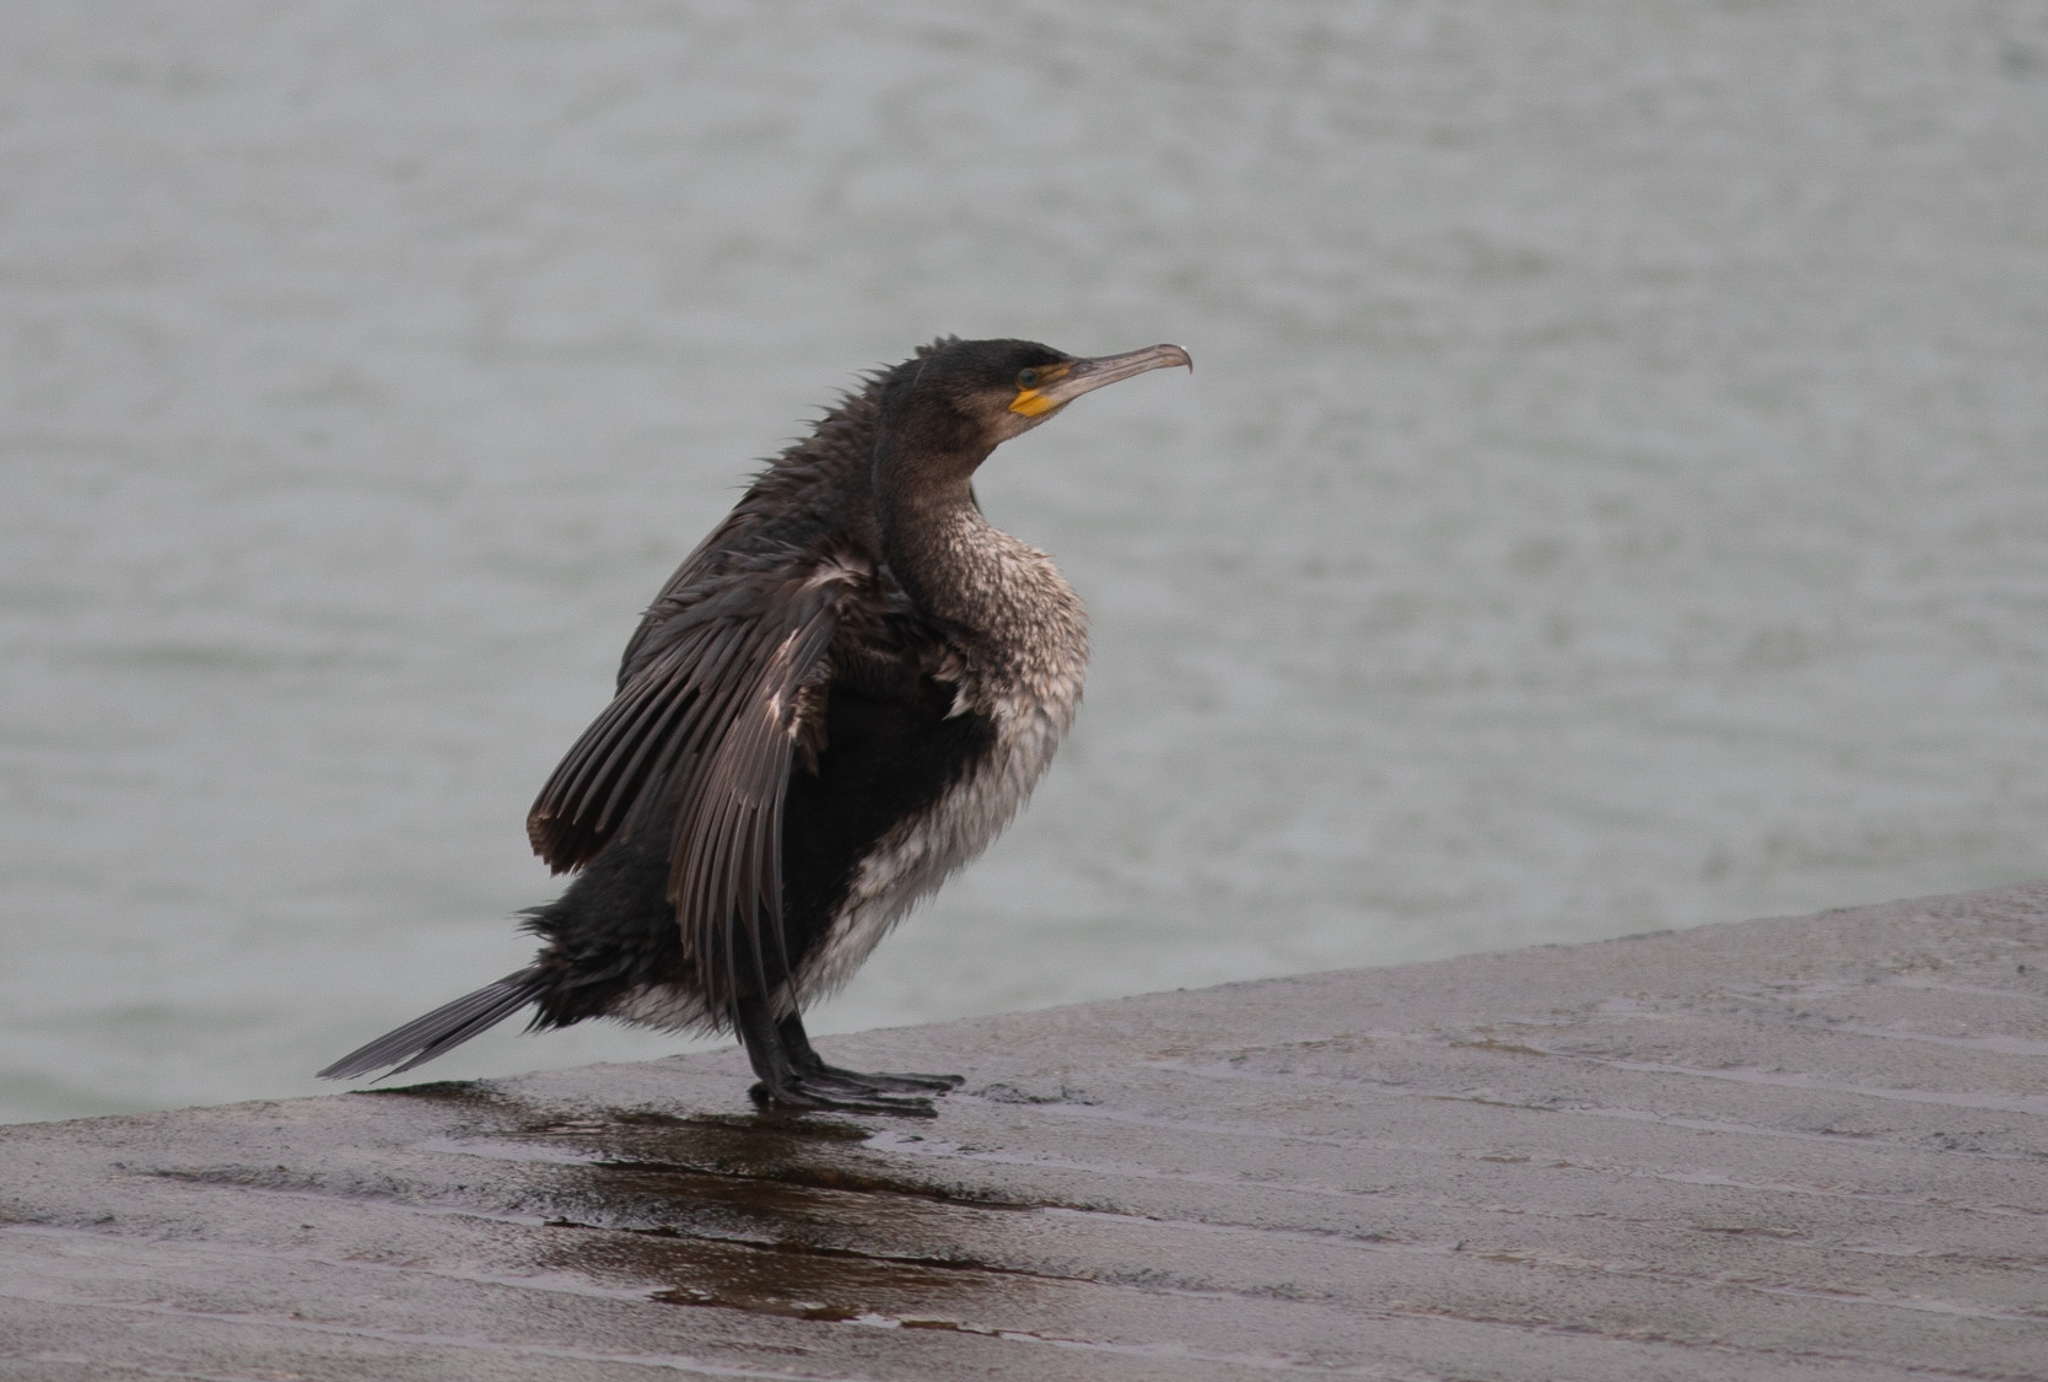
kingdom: Animalia
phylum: Chordata
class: Aves
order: Suliformes
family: Phalacrocoracidae
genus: Phalacrocorax
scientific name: Phalacrocorax carbo
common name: Great cormorant
